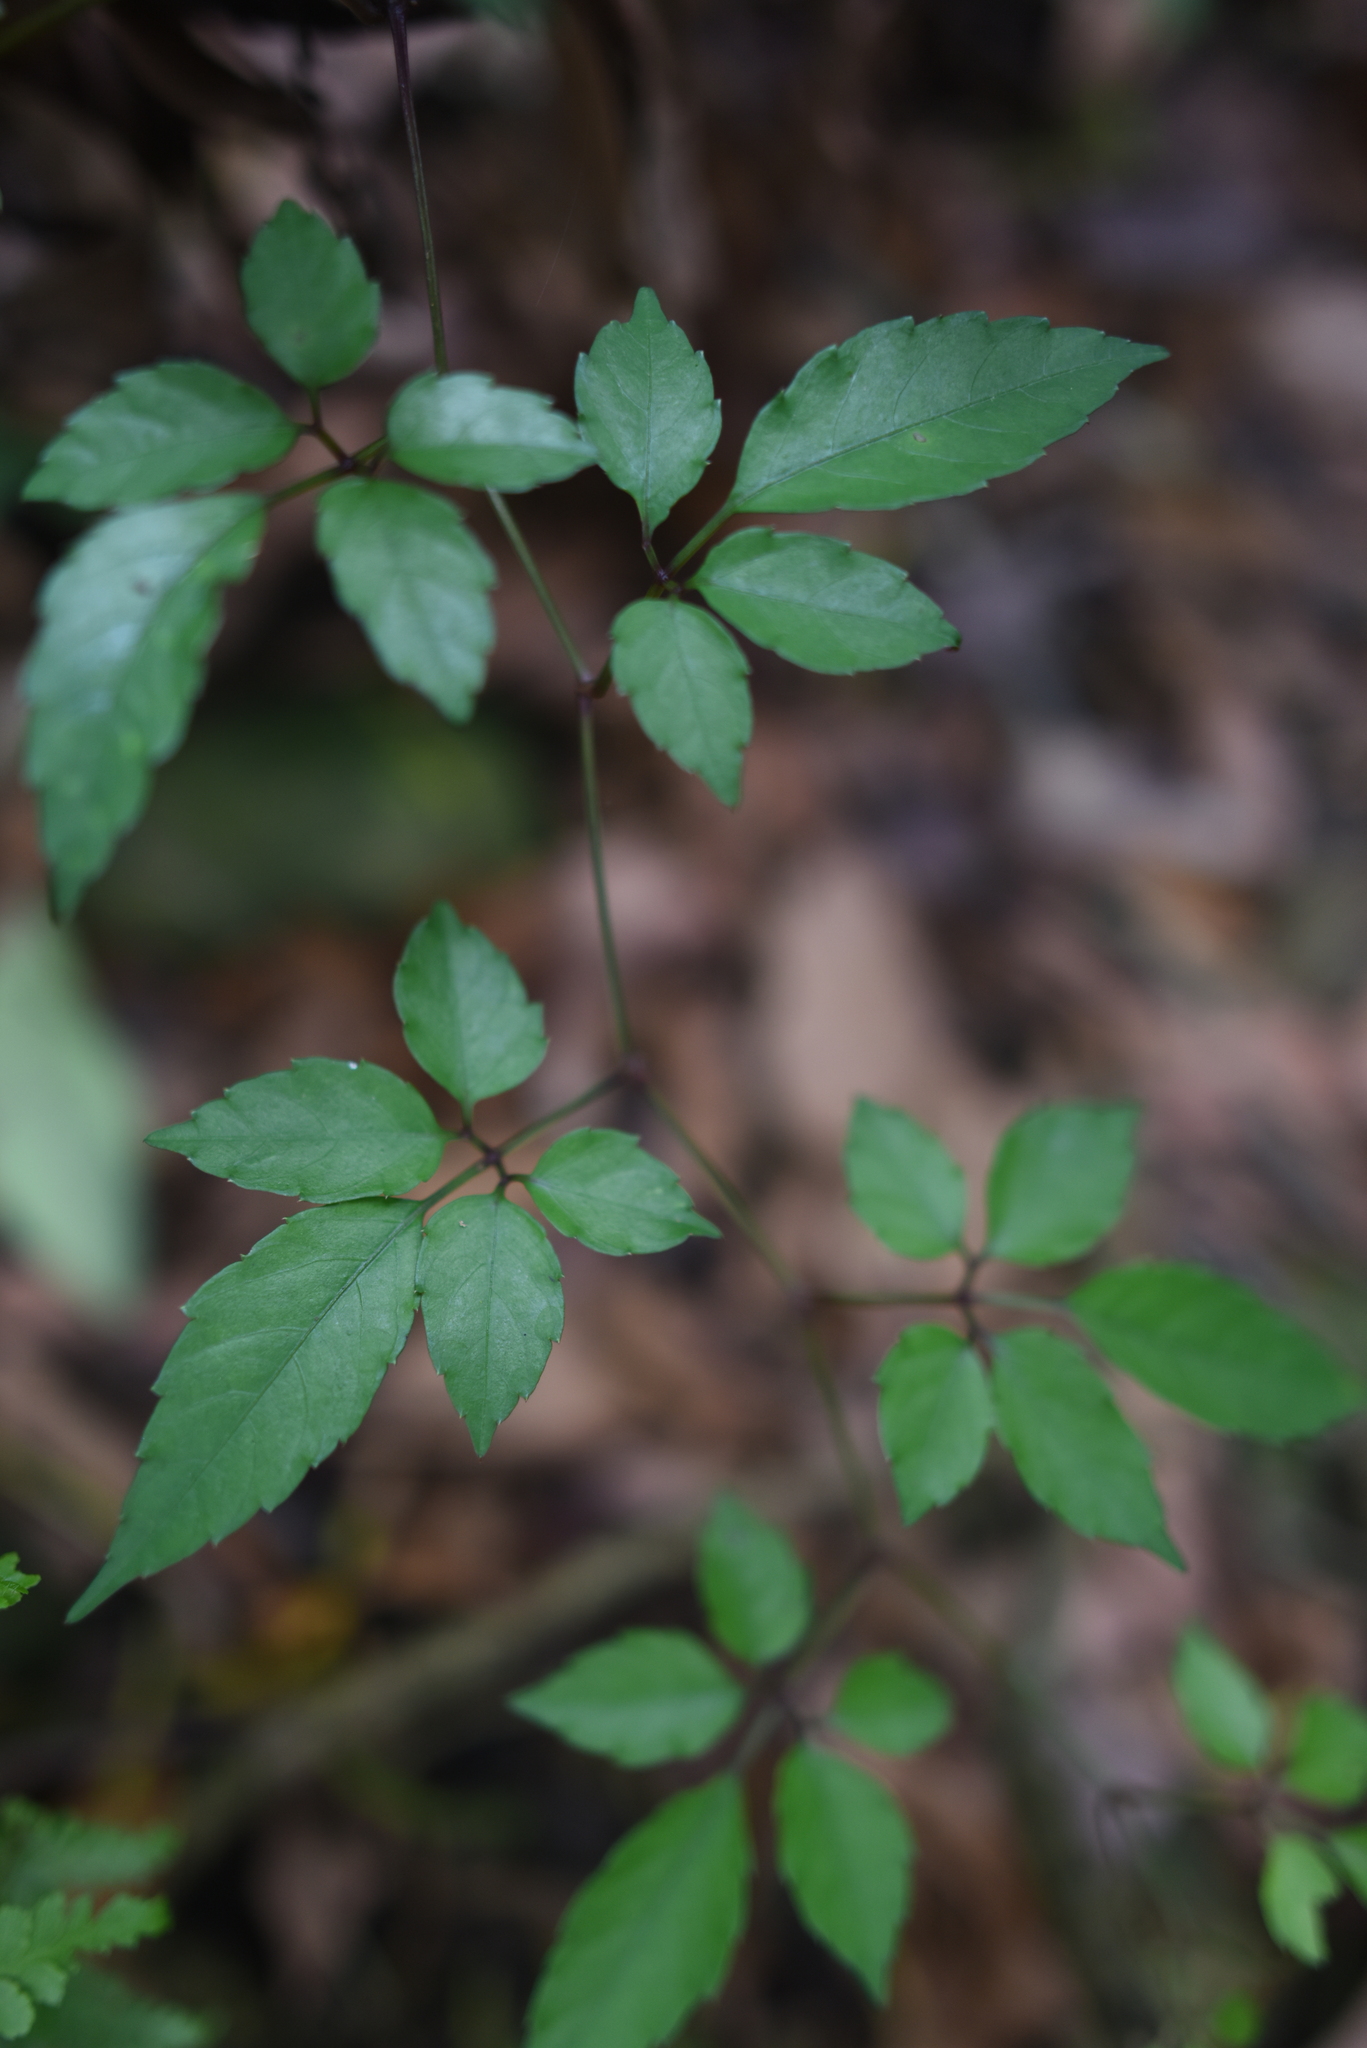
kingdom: Plantae
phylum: Tracheophyta
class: Magnoliopsida
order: Vitales
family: Vitaceae
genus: Causonis
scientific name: Causonis corniculata
